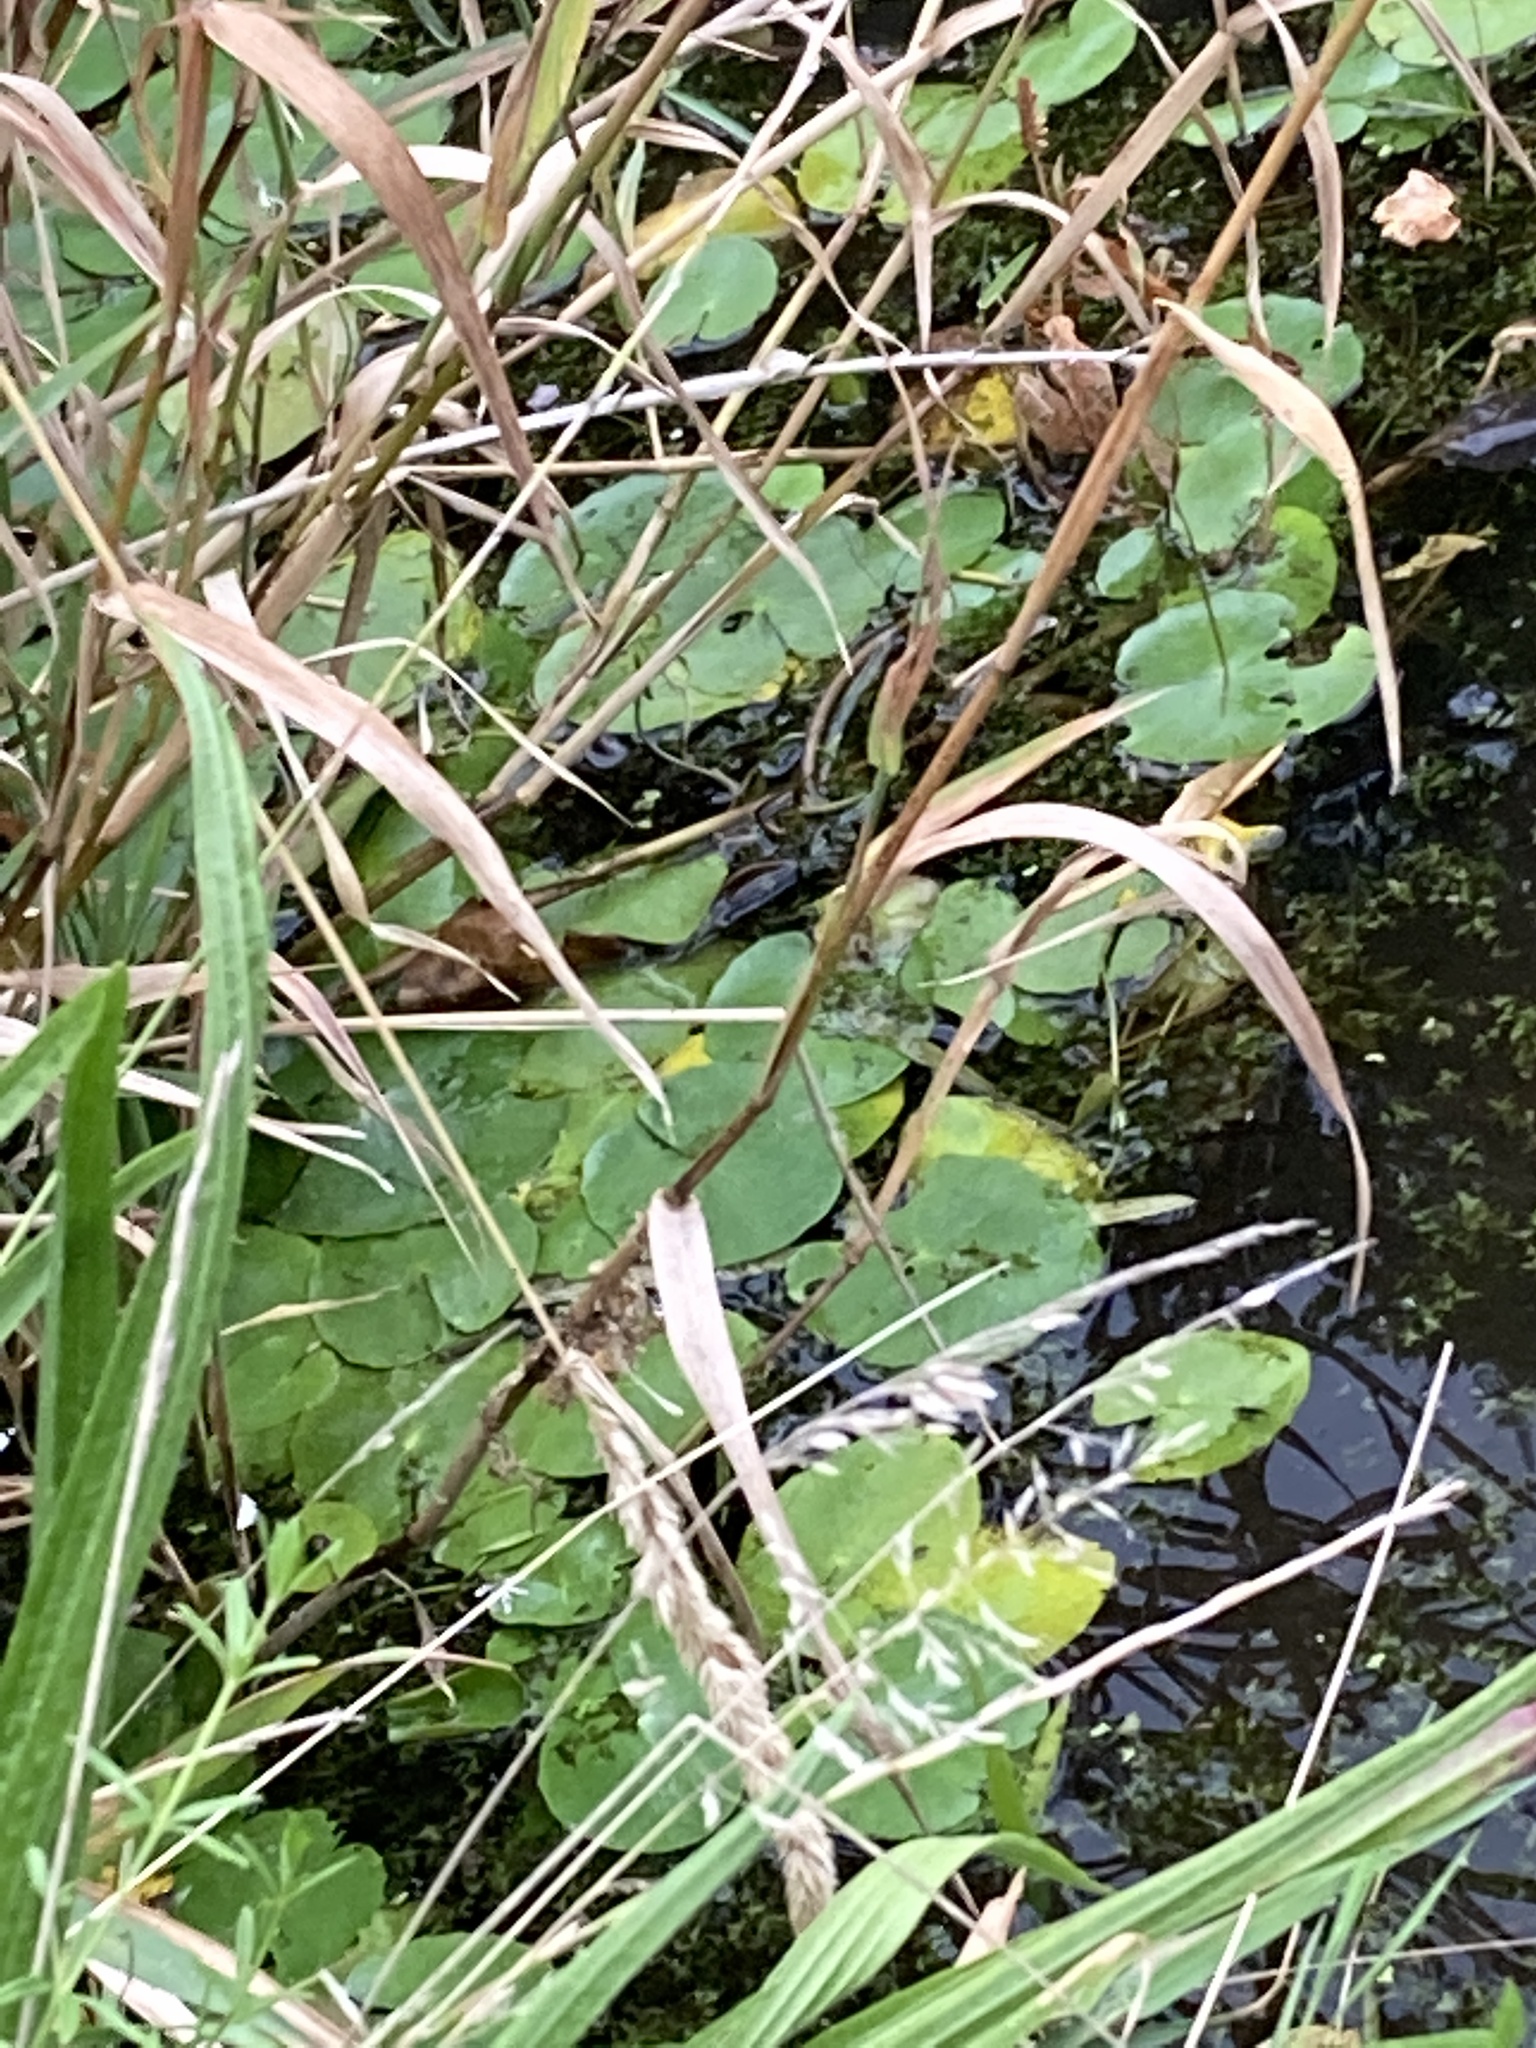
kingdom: Plantae
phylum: Tracheophyta
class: Magnoliopsida
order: Asterales
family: Menyanthaceae
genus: Nymphoides
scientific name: Nymphoides peltata
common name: Fringed water-lily
